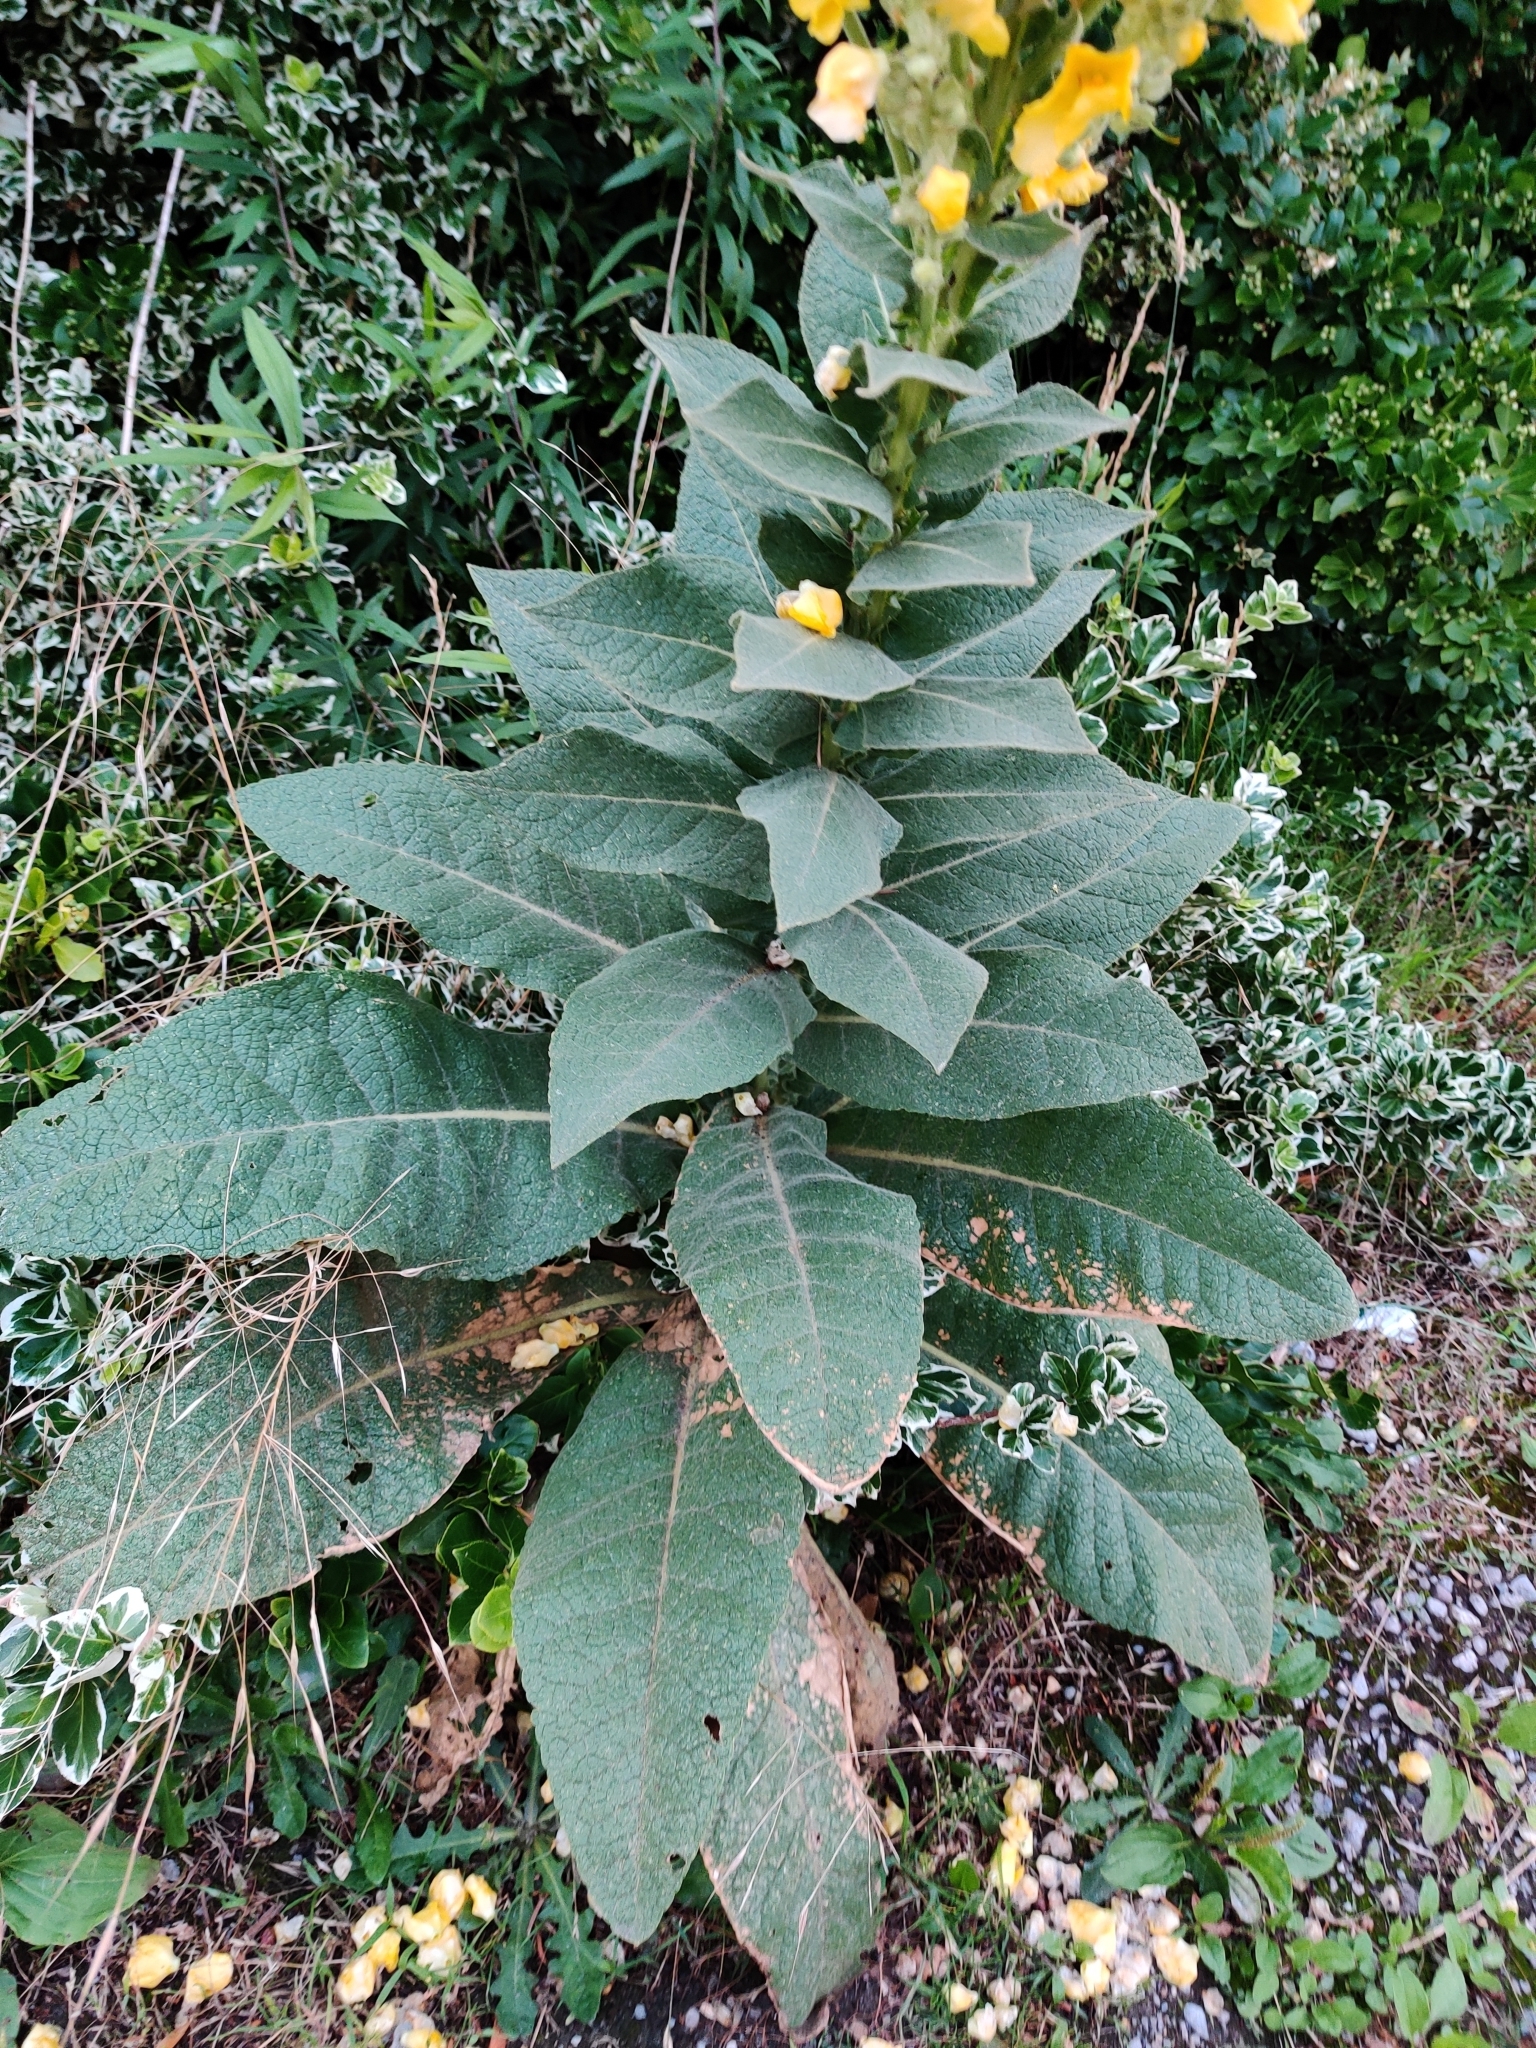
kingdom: Plantae
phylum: Tracheophyta
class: Magnoliopsida
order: Lamiales
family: Scrophulariaceae
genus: Verbascum
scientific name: Verbascum phlomoides
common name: Orange mullein
